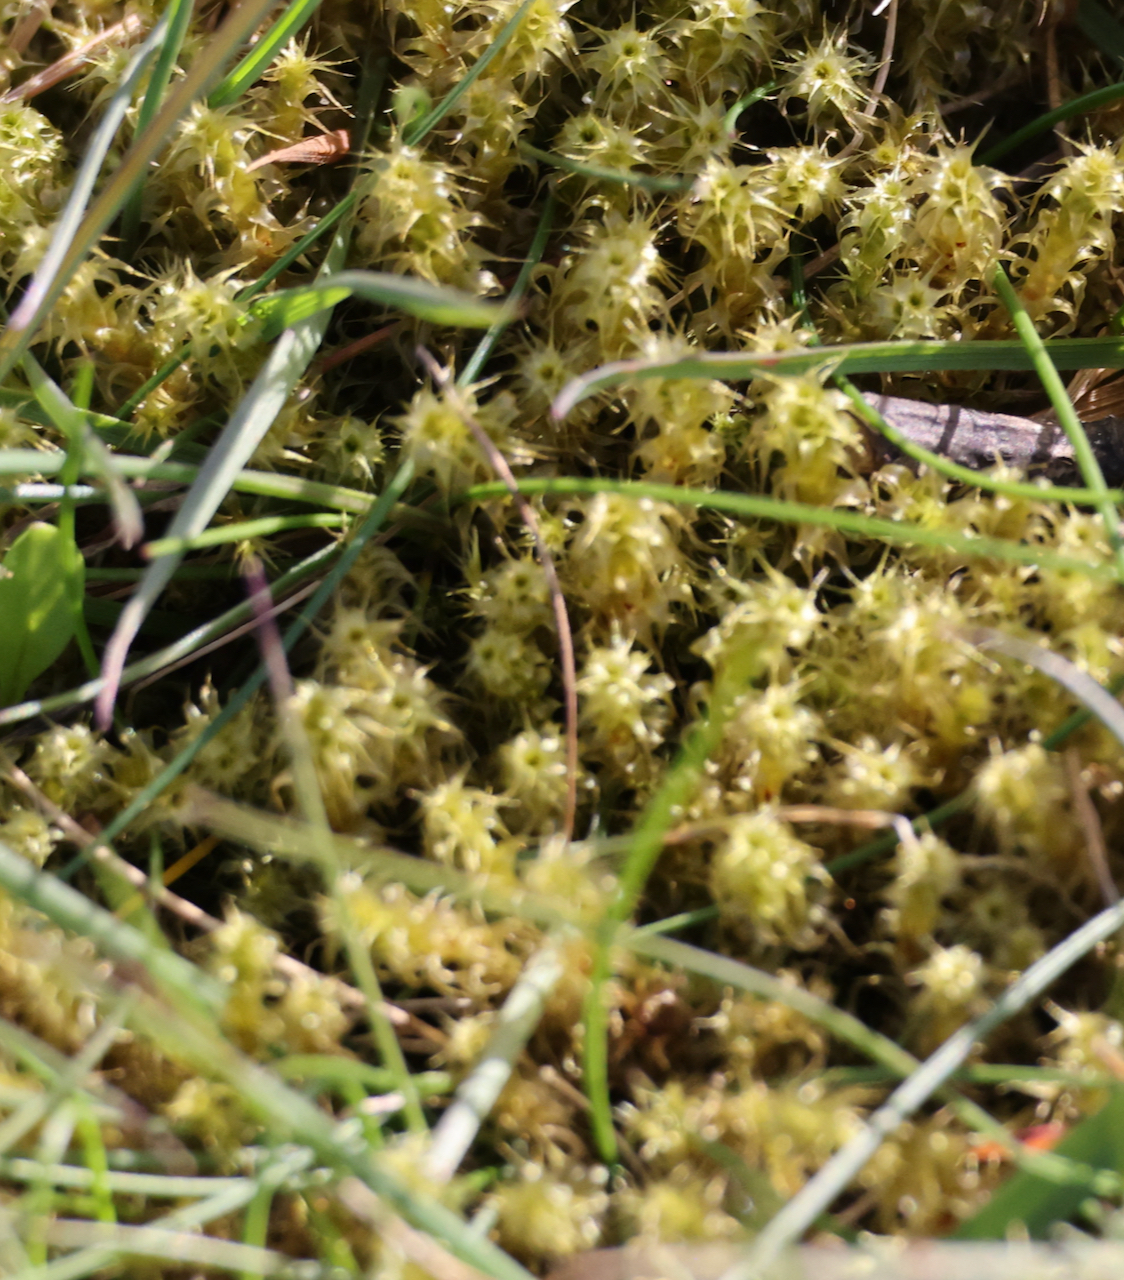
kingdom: Plantae
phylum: Bryophyta
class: Bryopsida
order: Hypnales
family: Hylocomiaceae
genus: Rhytidiadelphus
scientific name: Rhytidiadelphus squarrosus
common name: Springy turf-moss
